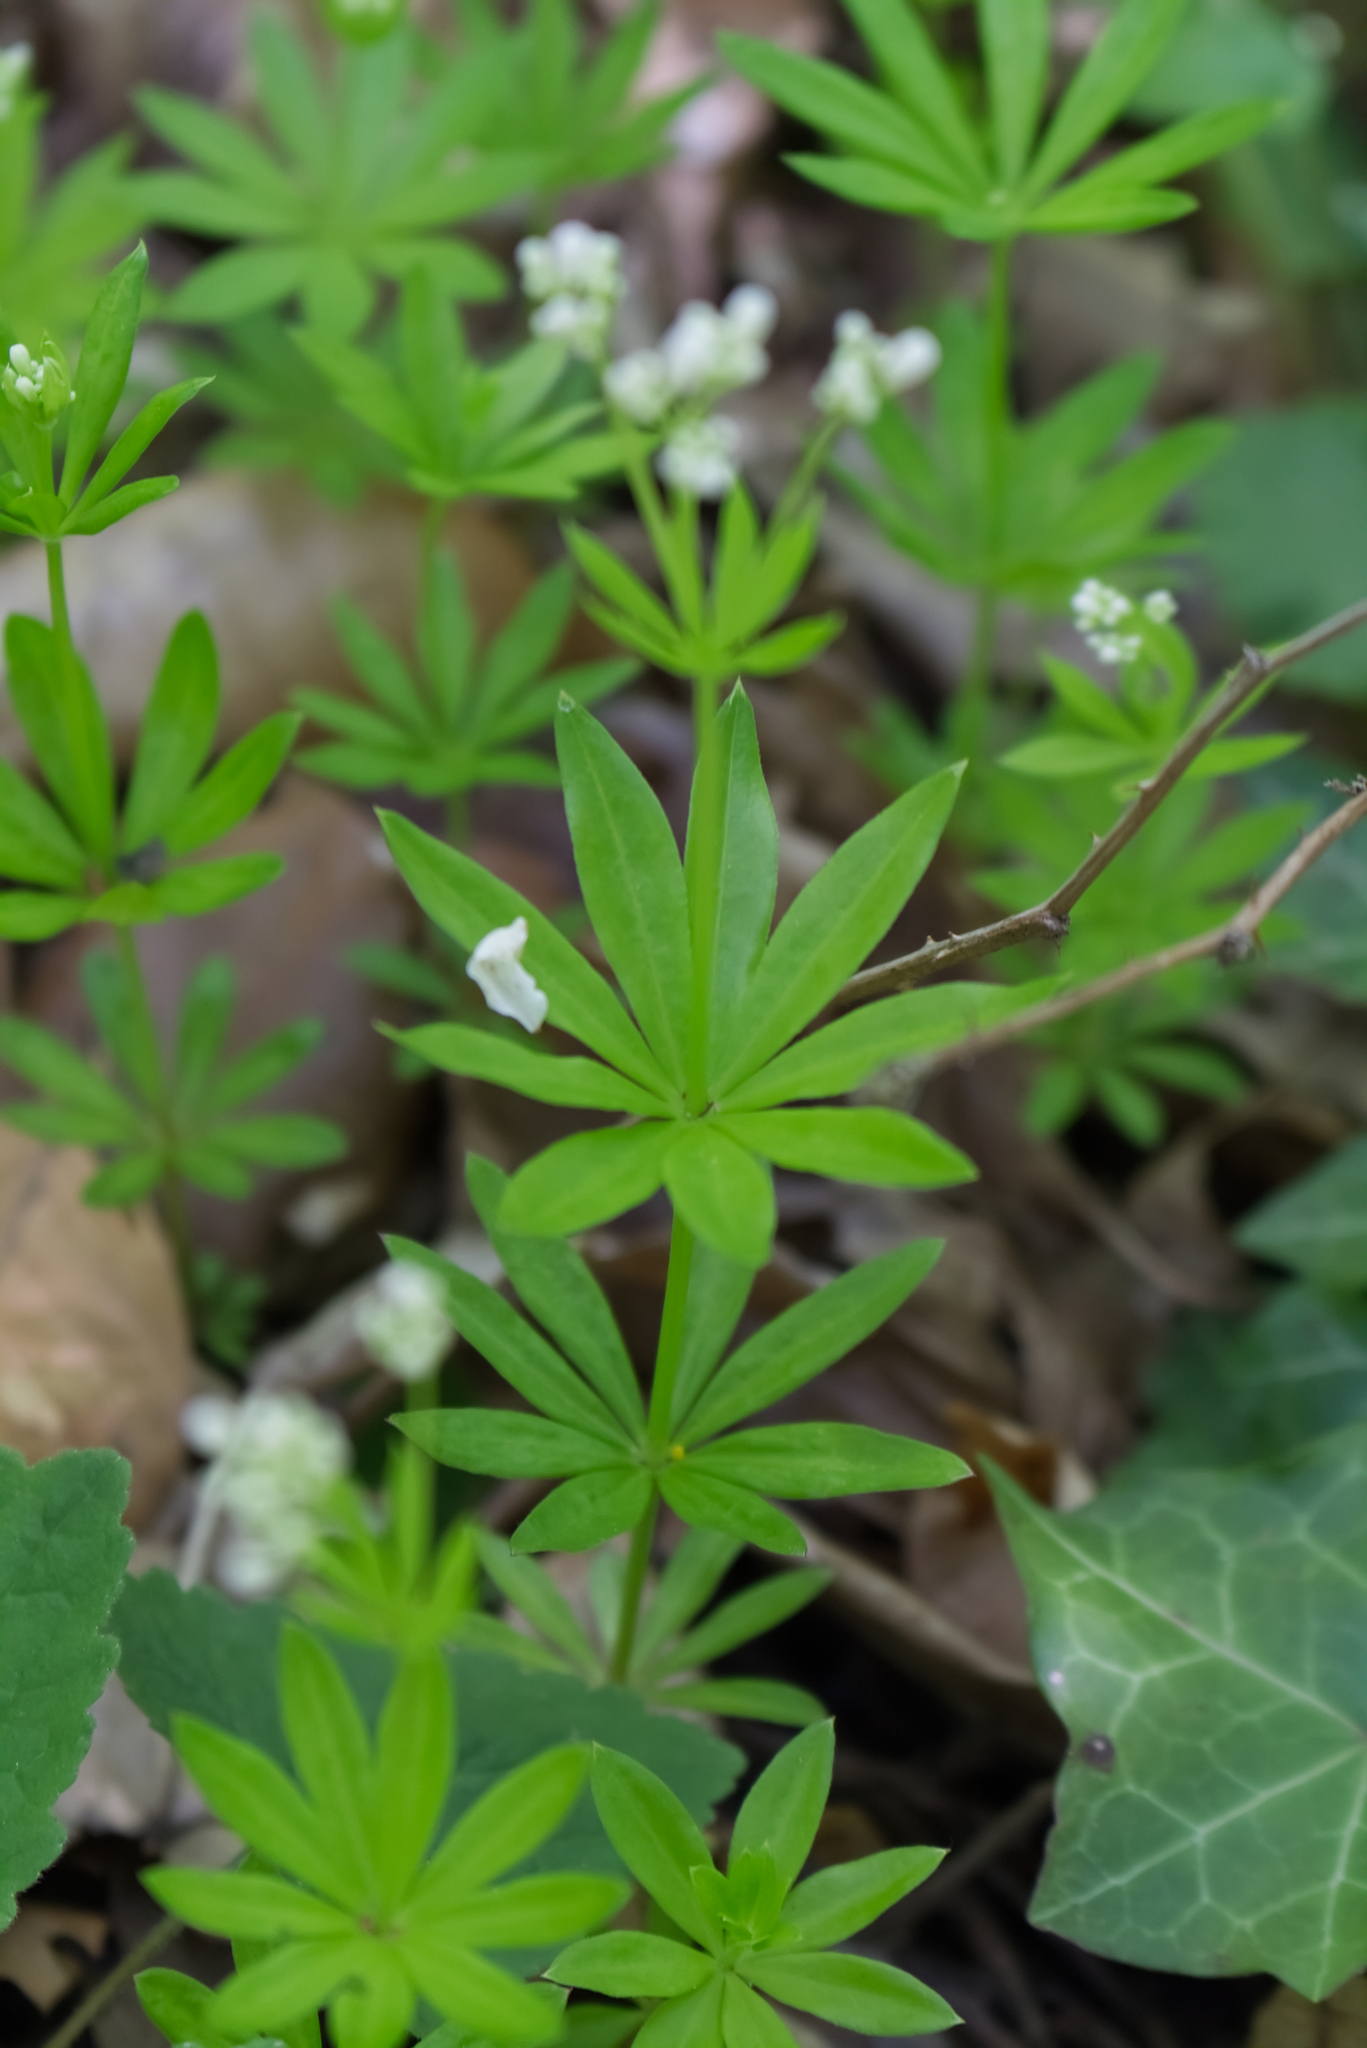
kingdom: Plantae
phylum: Tracheophyta
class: Magnoliopsida
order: Gentianales
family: Rubiaceae
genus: Galium
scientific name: Galium odoratum
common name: Sweet woodruff
